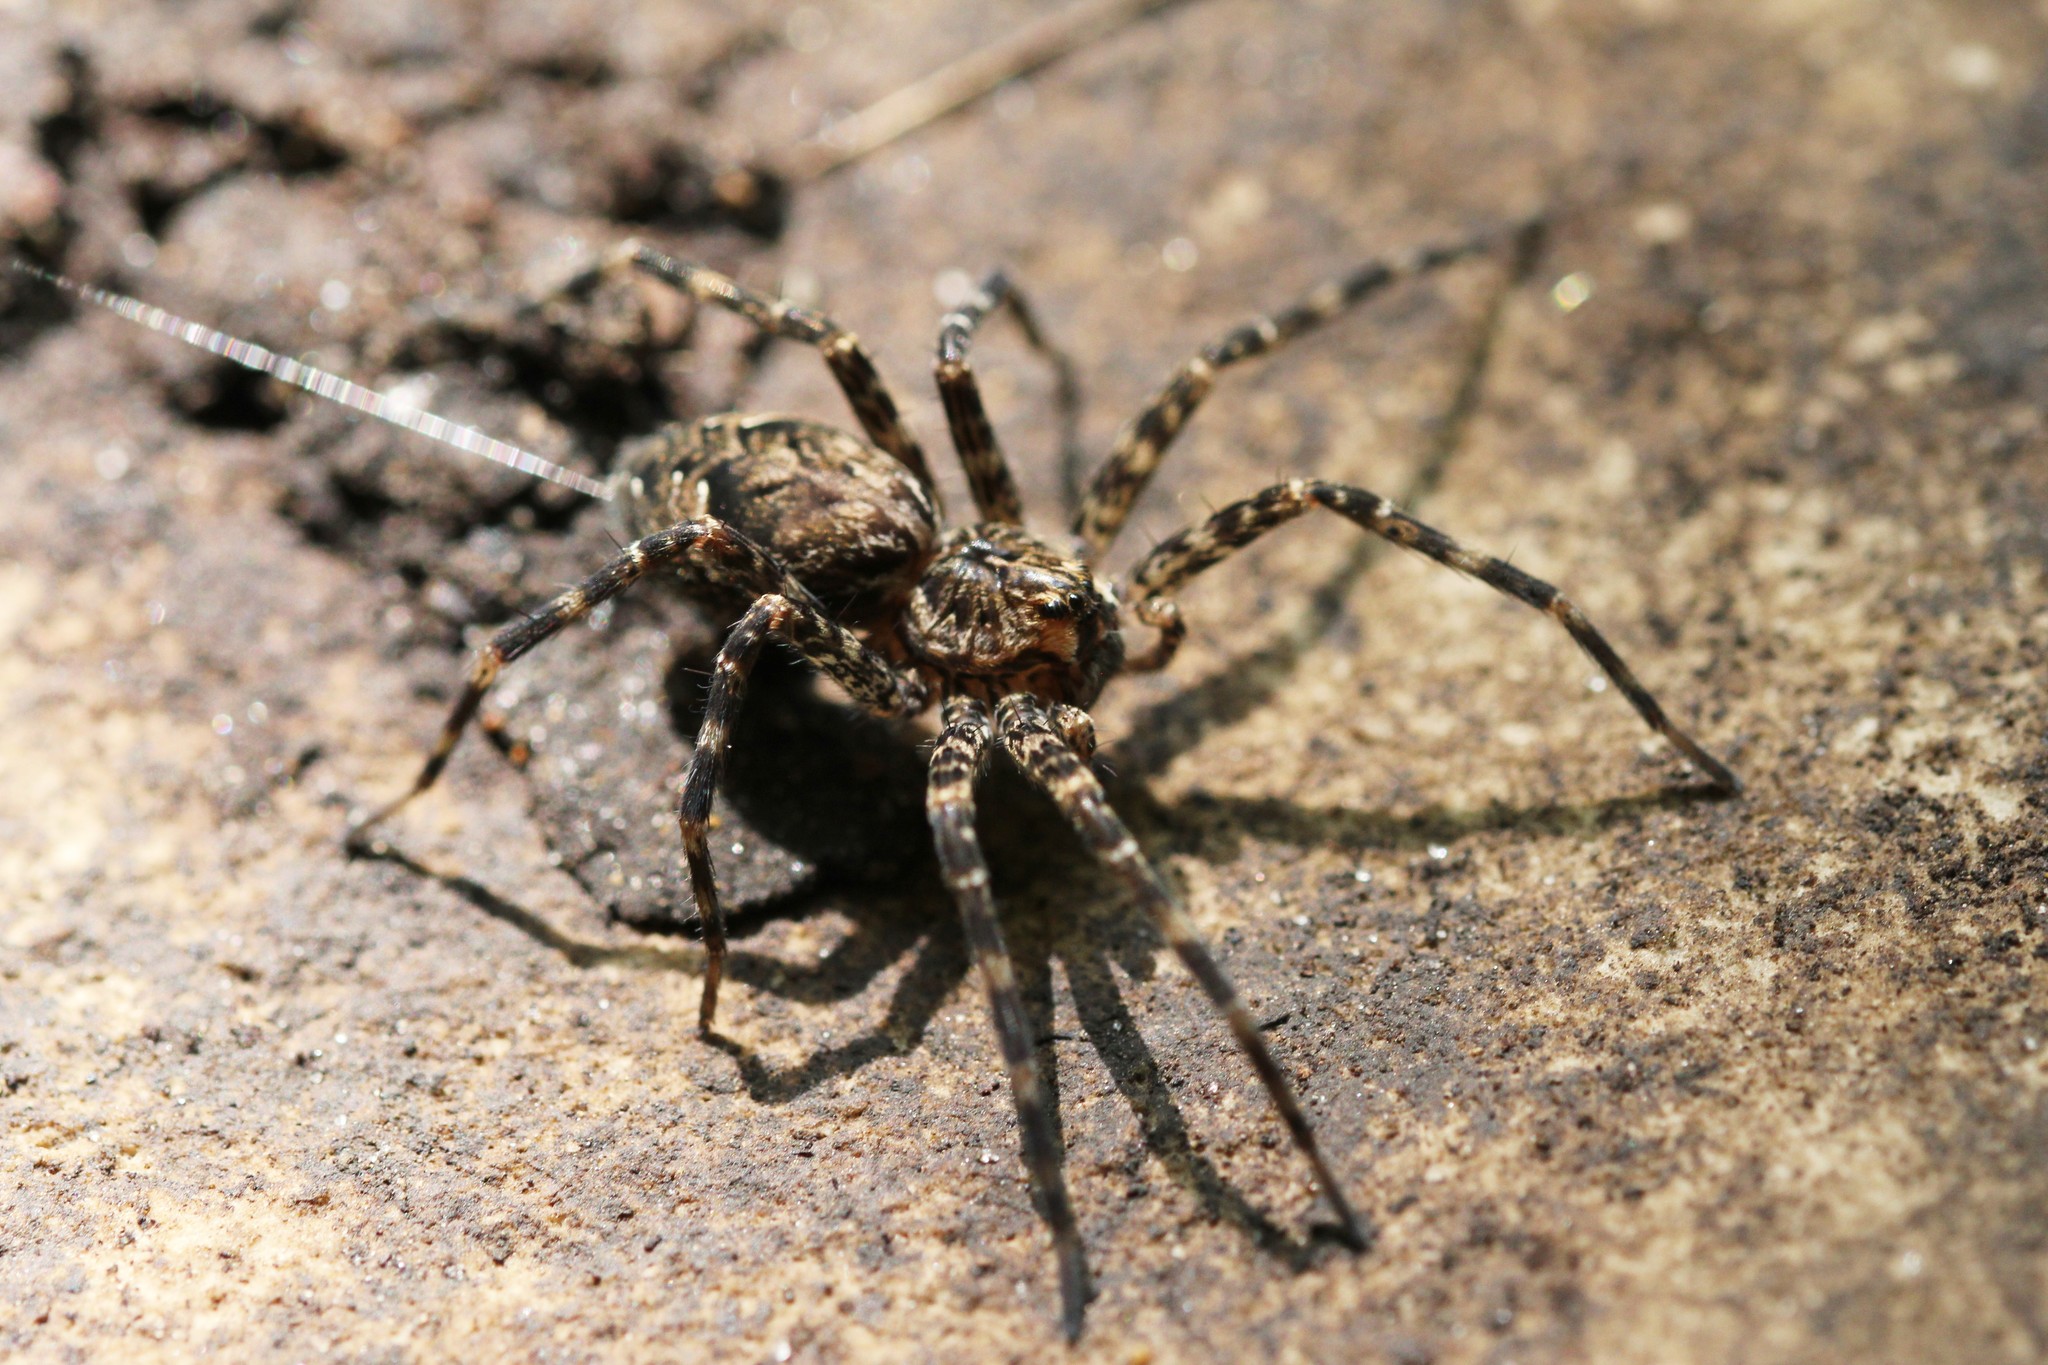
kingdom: Animalia
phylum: Arthropoda
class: Arachnida
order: Araneae
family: Pisauridae
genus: Dolomedes
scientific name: Dolomedes tenebrosus
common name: Dark fishing spider
